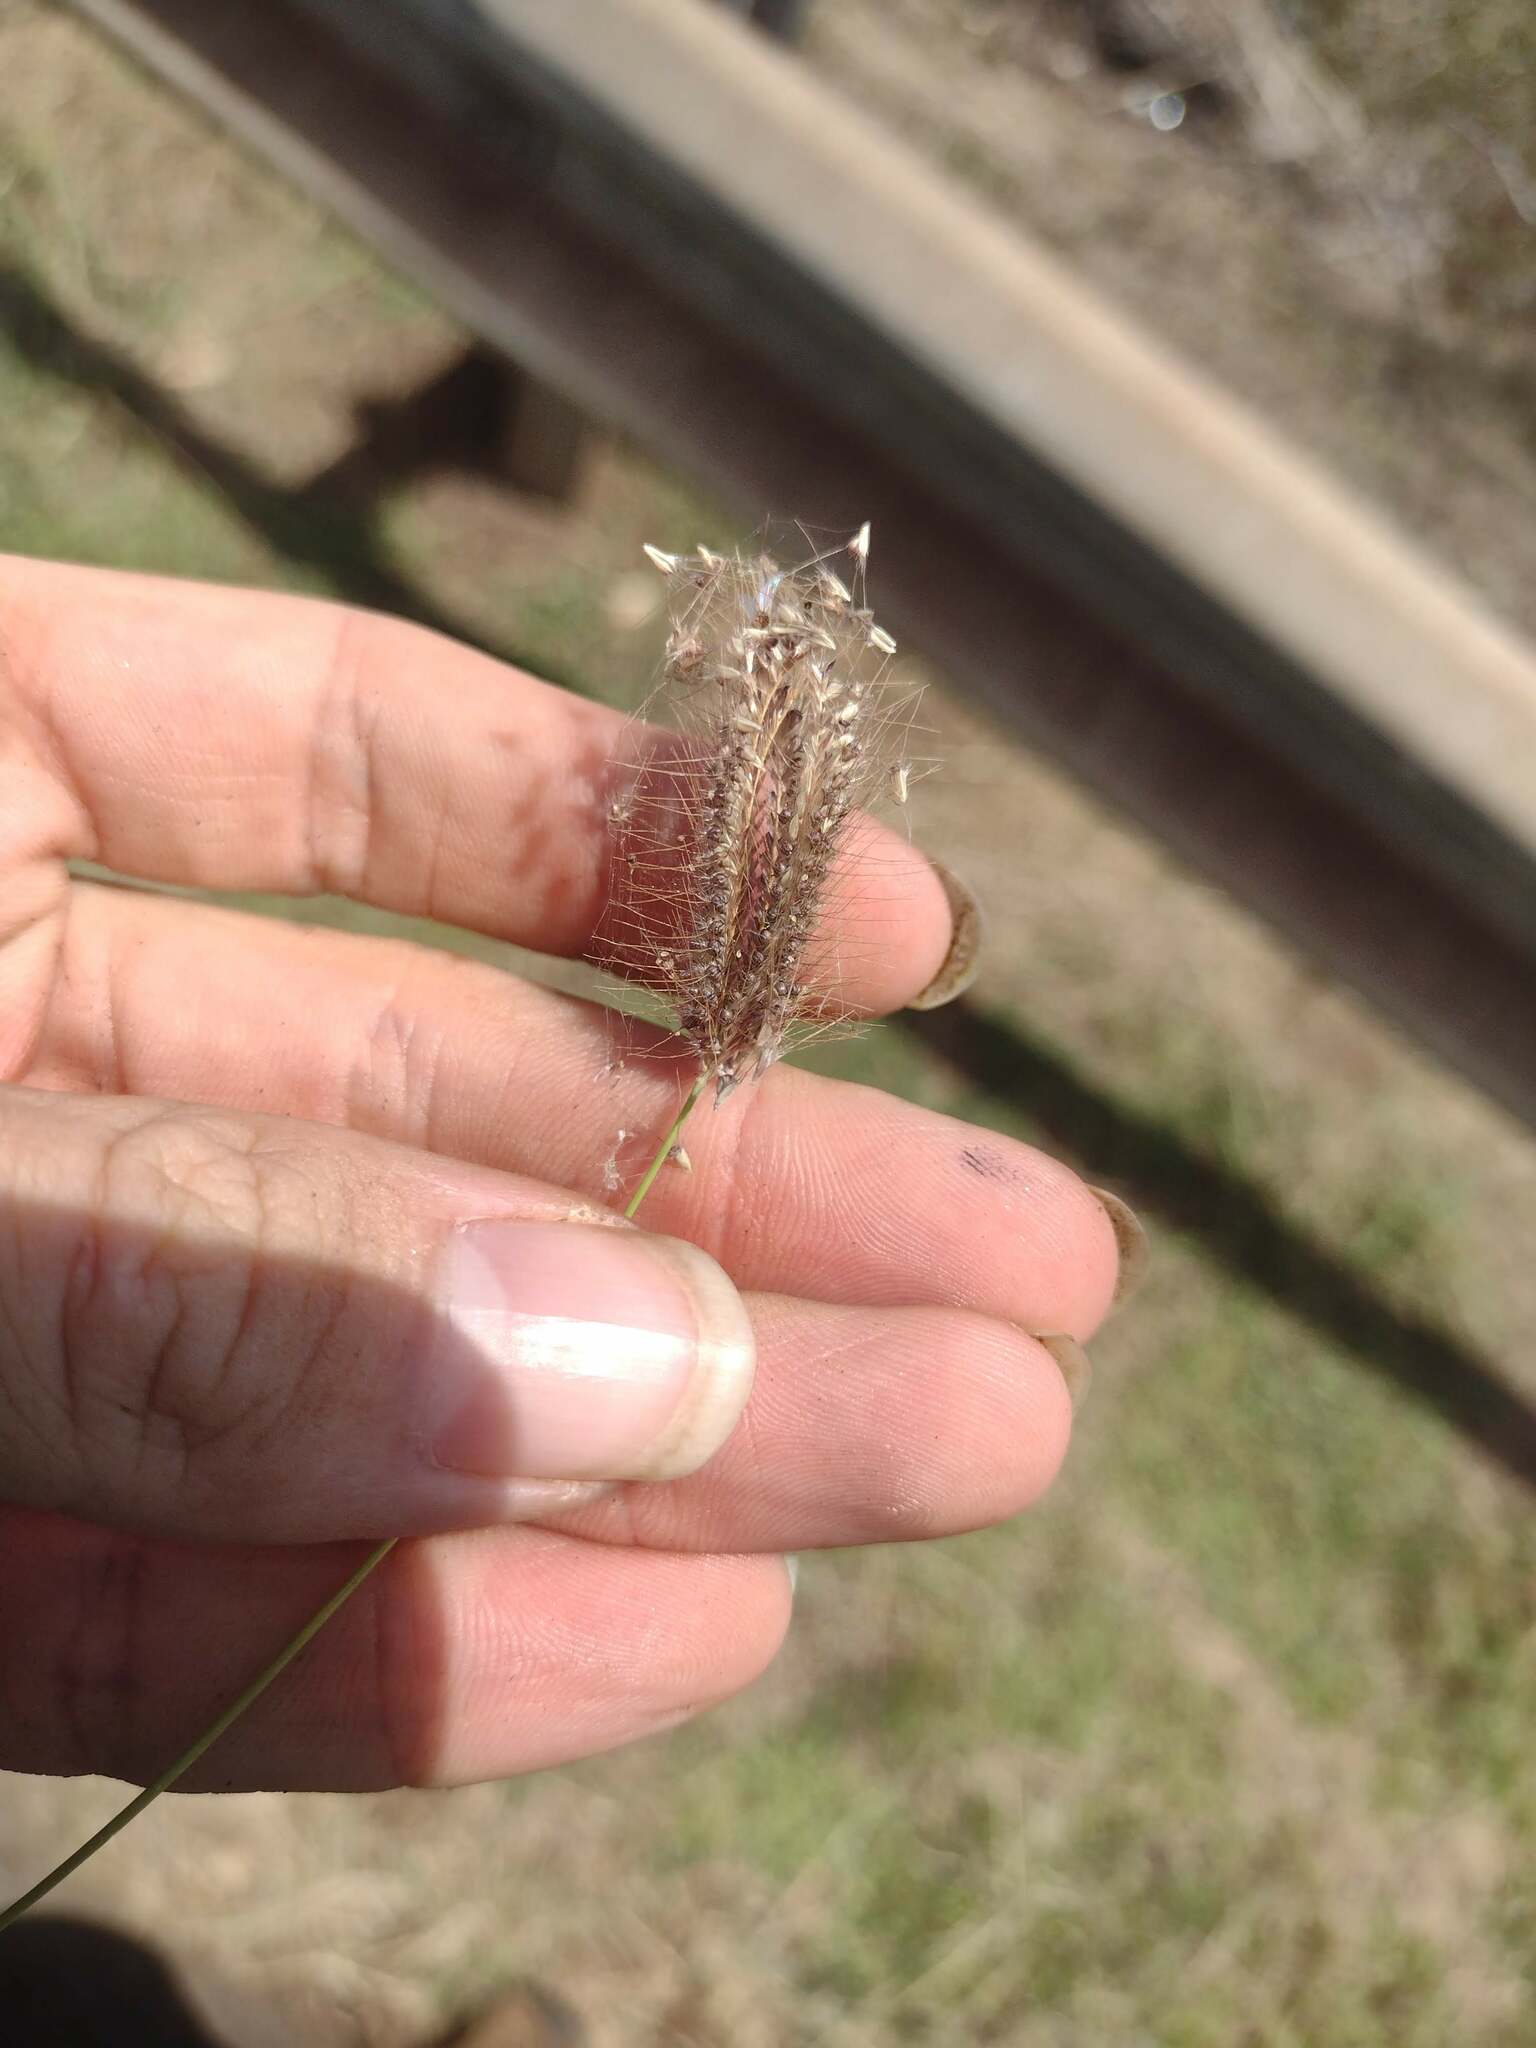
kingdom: Plantae
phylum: Tracheophyta
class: Liliopsida
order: Poales
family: Poaceae
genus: Chloris
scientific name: Chloris barbata
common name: Swollen fingergrass
